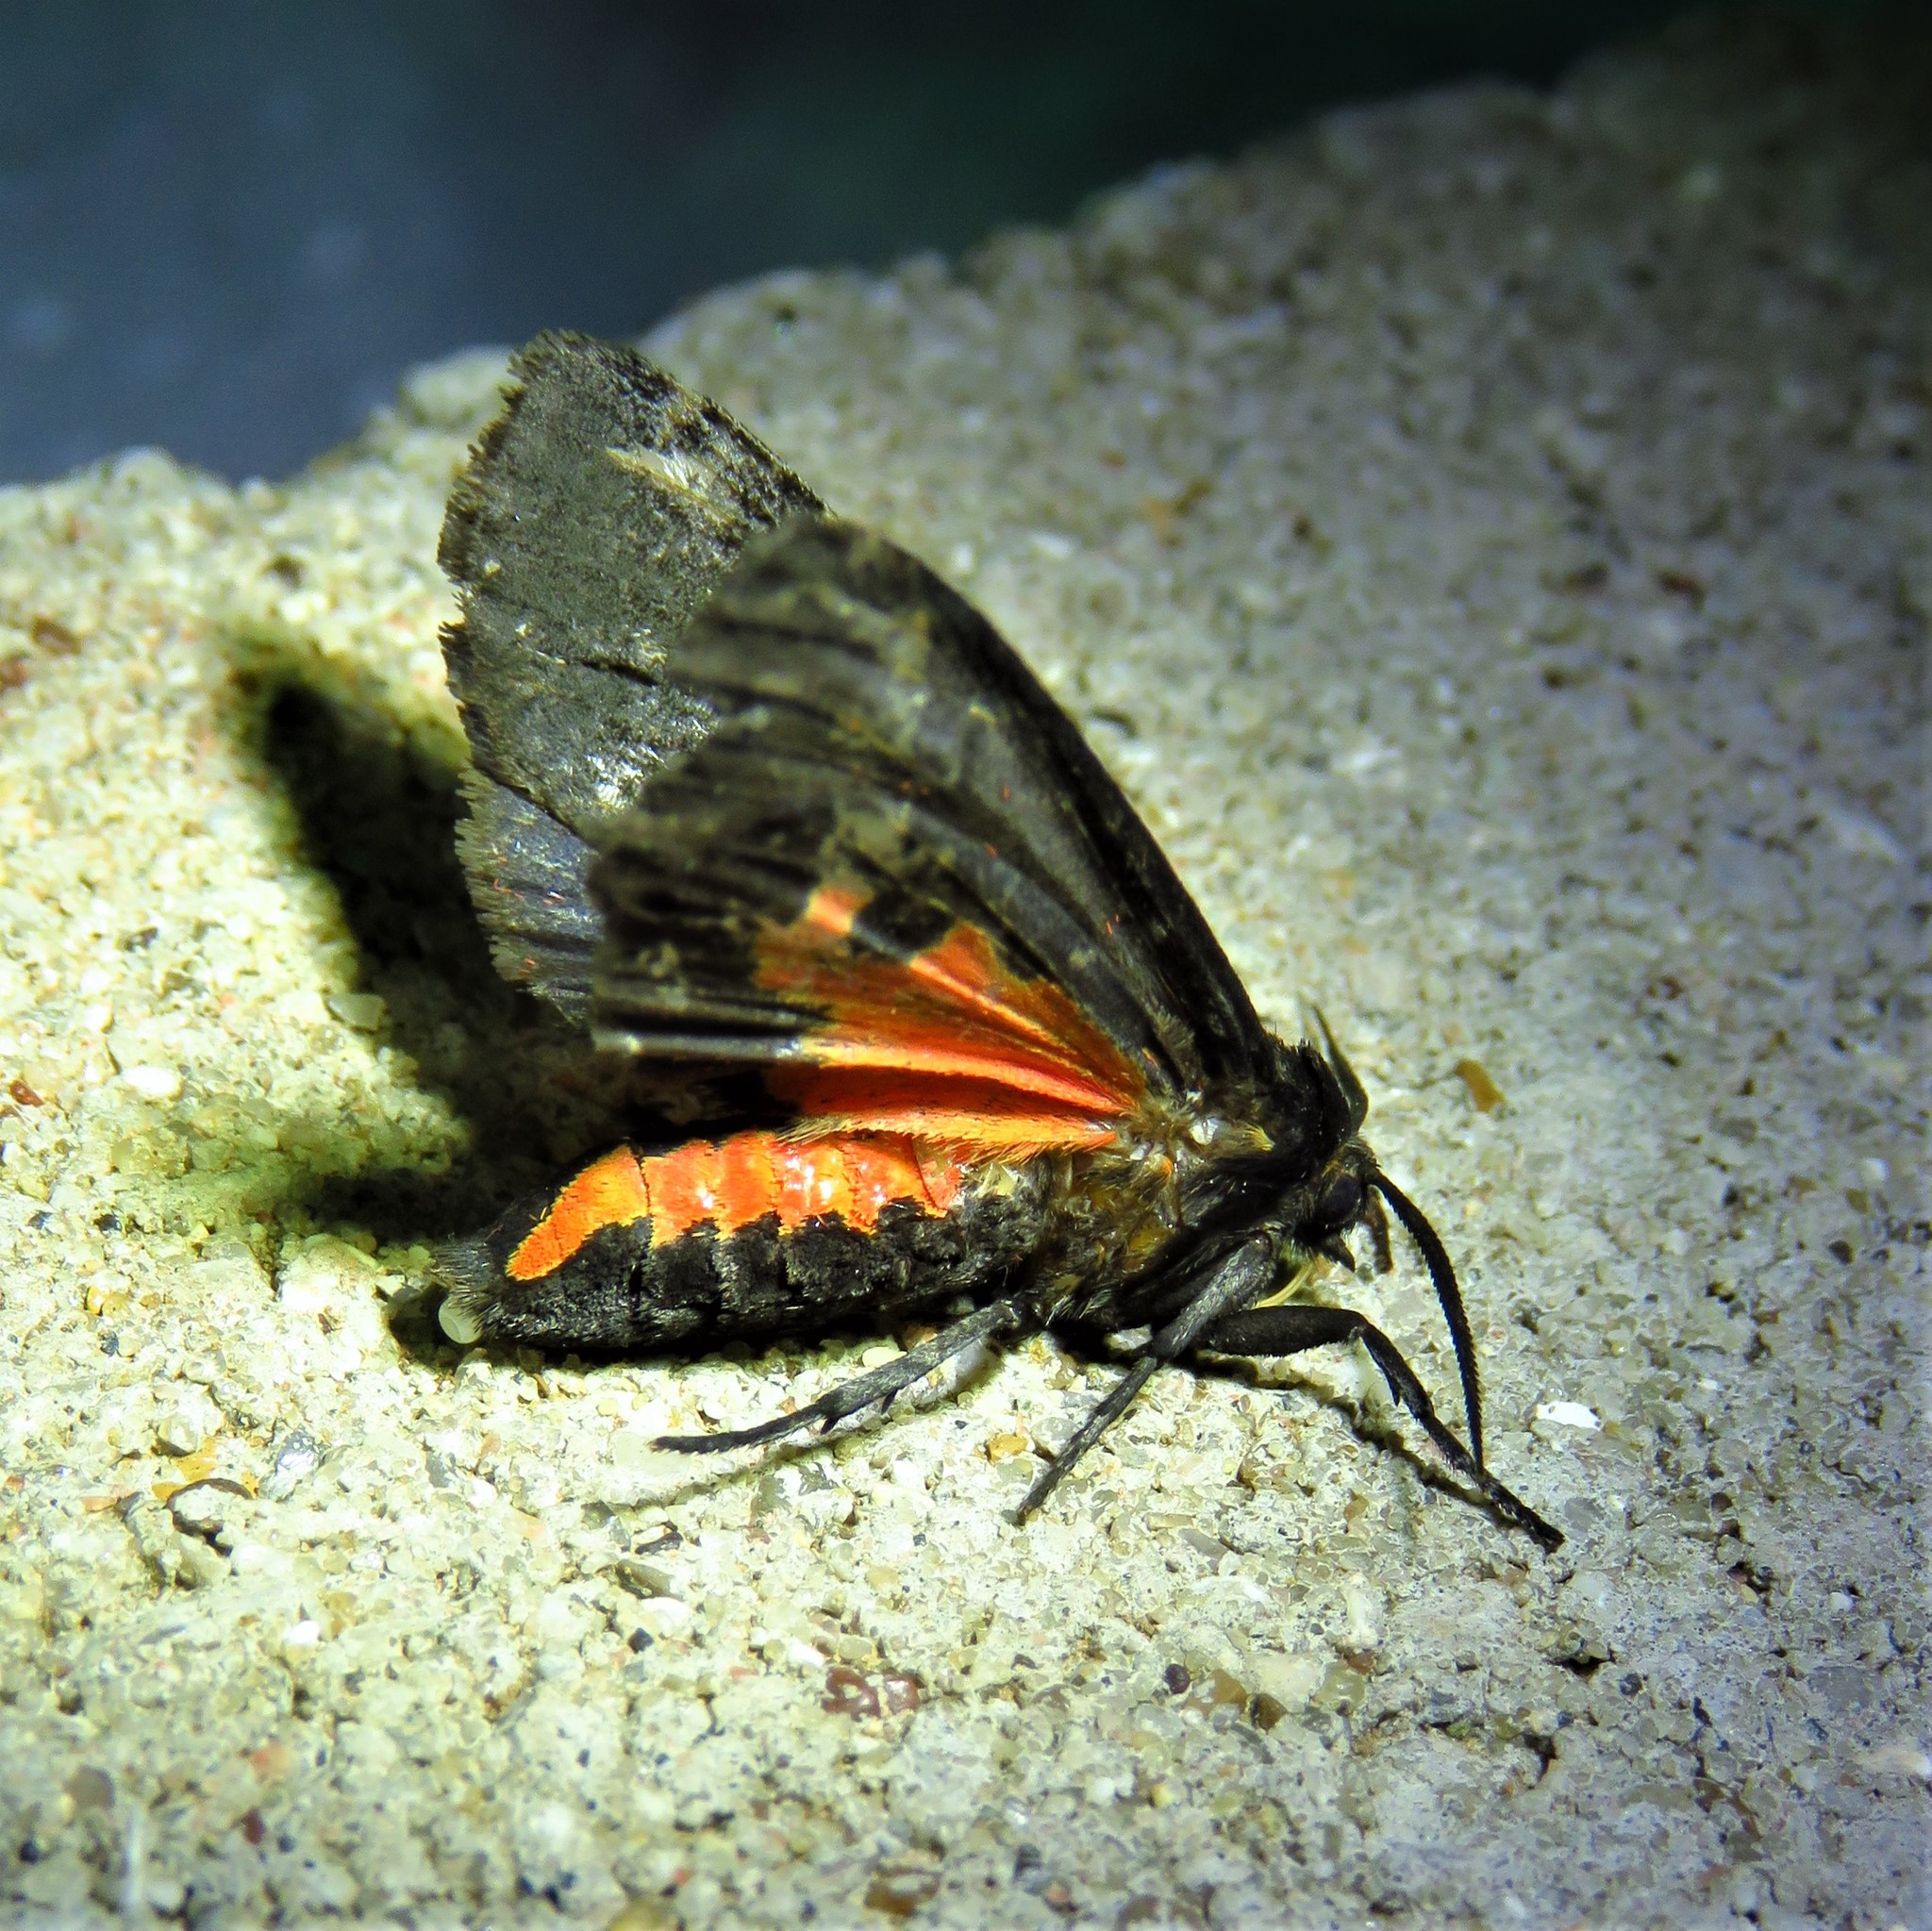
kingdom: Animalia
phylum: Arthropoda
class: Insecta
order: Lepidoptera
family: Erebidae
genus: Apantesis
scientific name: Apantesis
